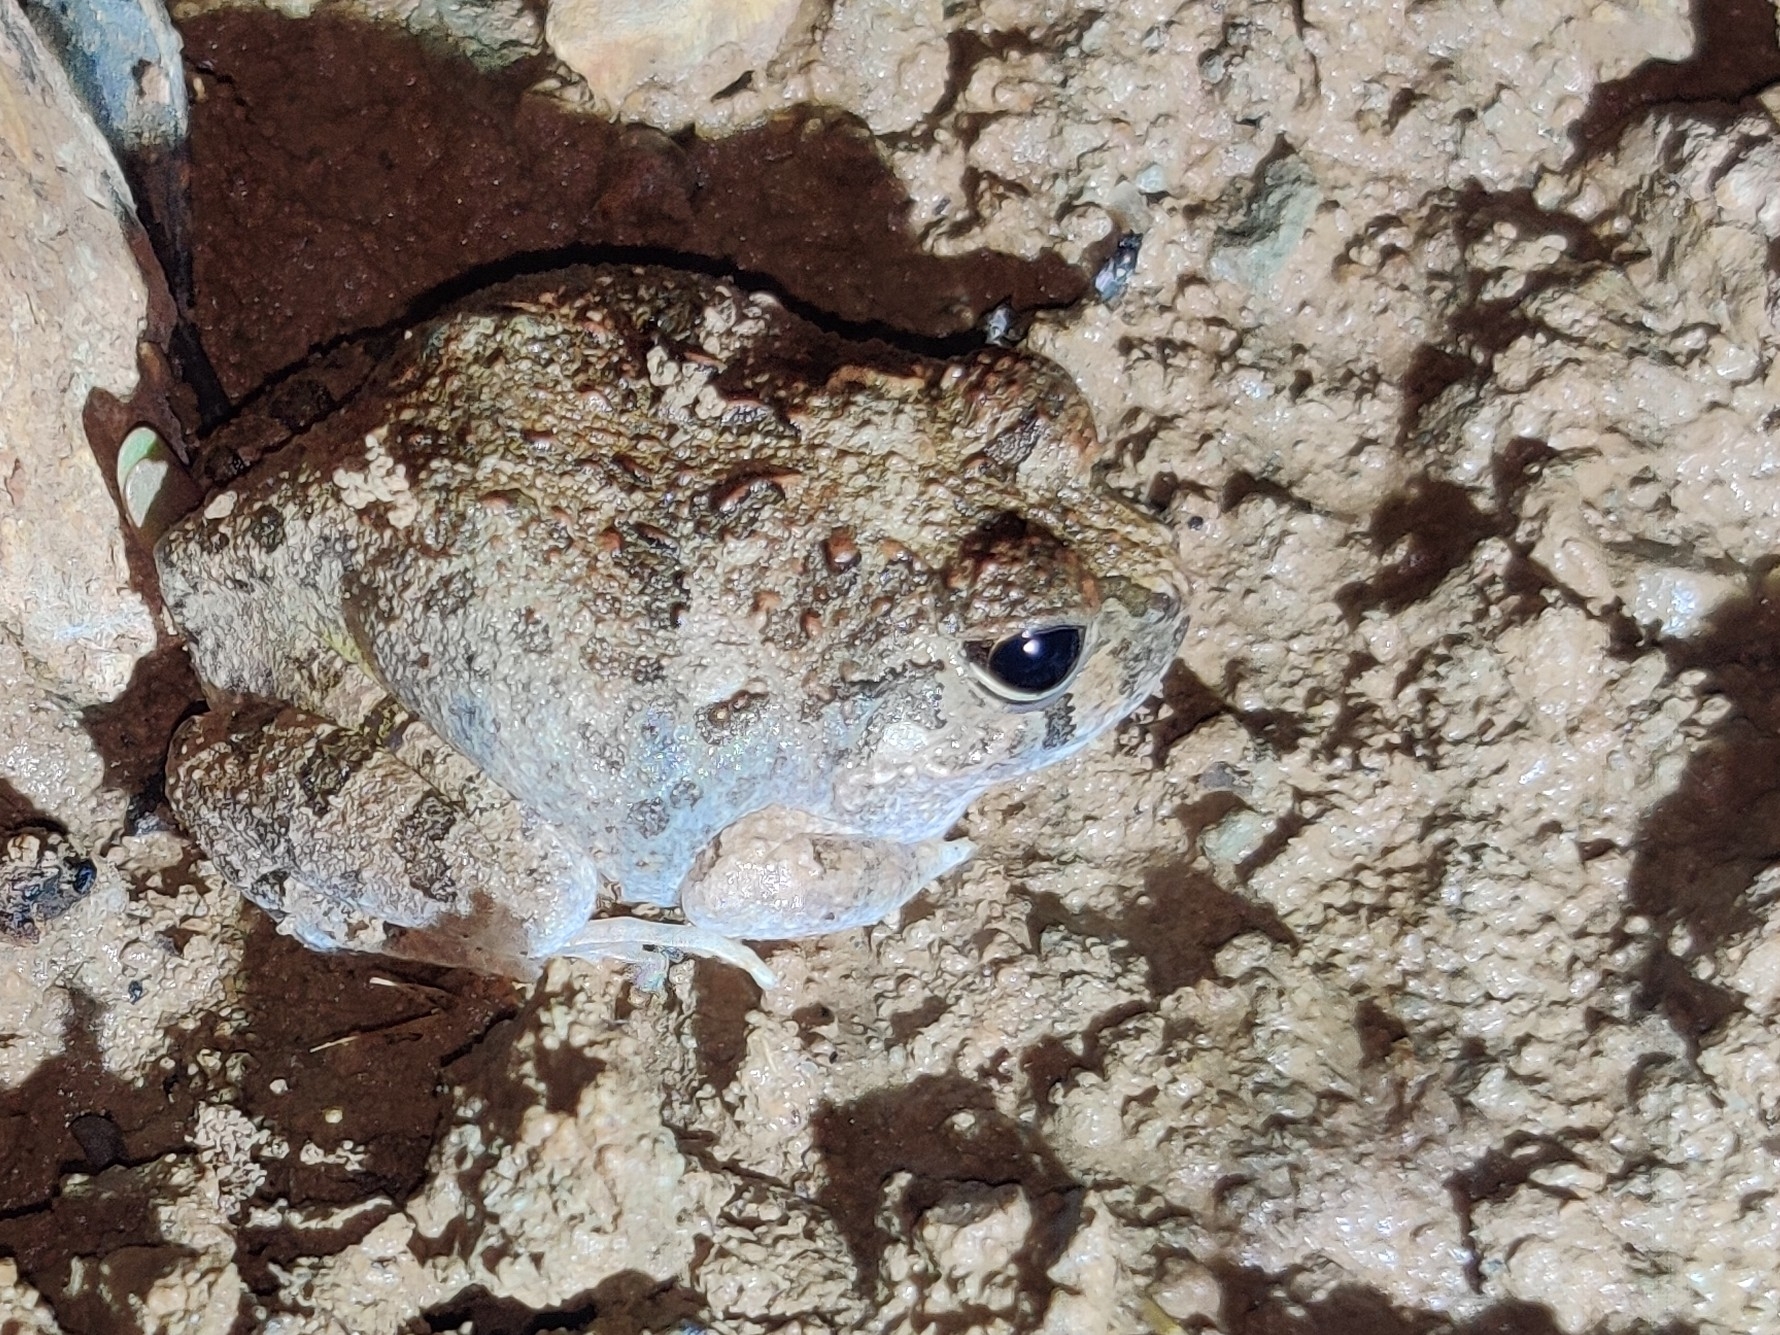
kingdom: Animalia
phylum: Chordata
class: Amphibia
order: Anura
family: Limnodynastidae
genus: Platyplectrum
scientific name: Platyplectrum ornatum
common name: Ornate burrowing frog
